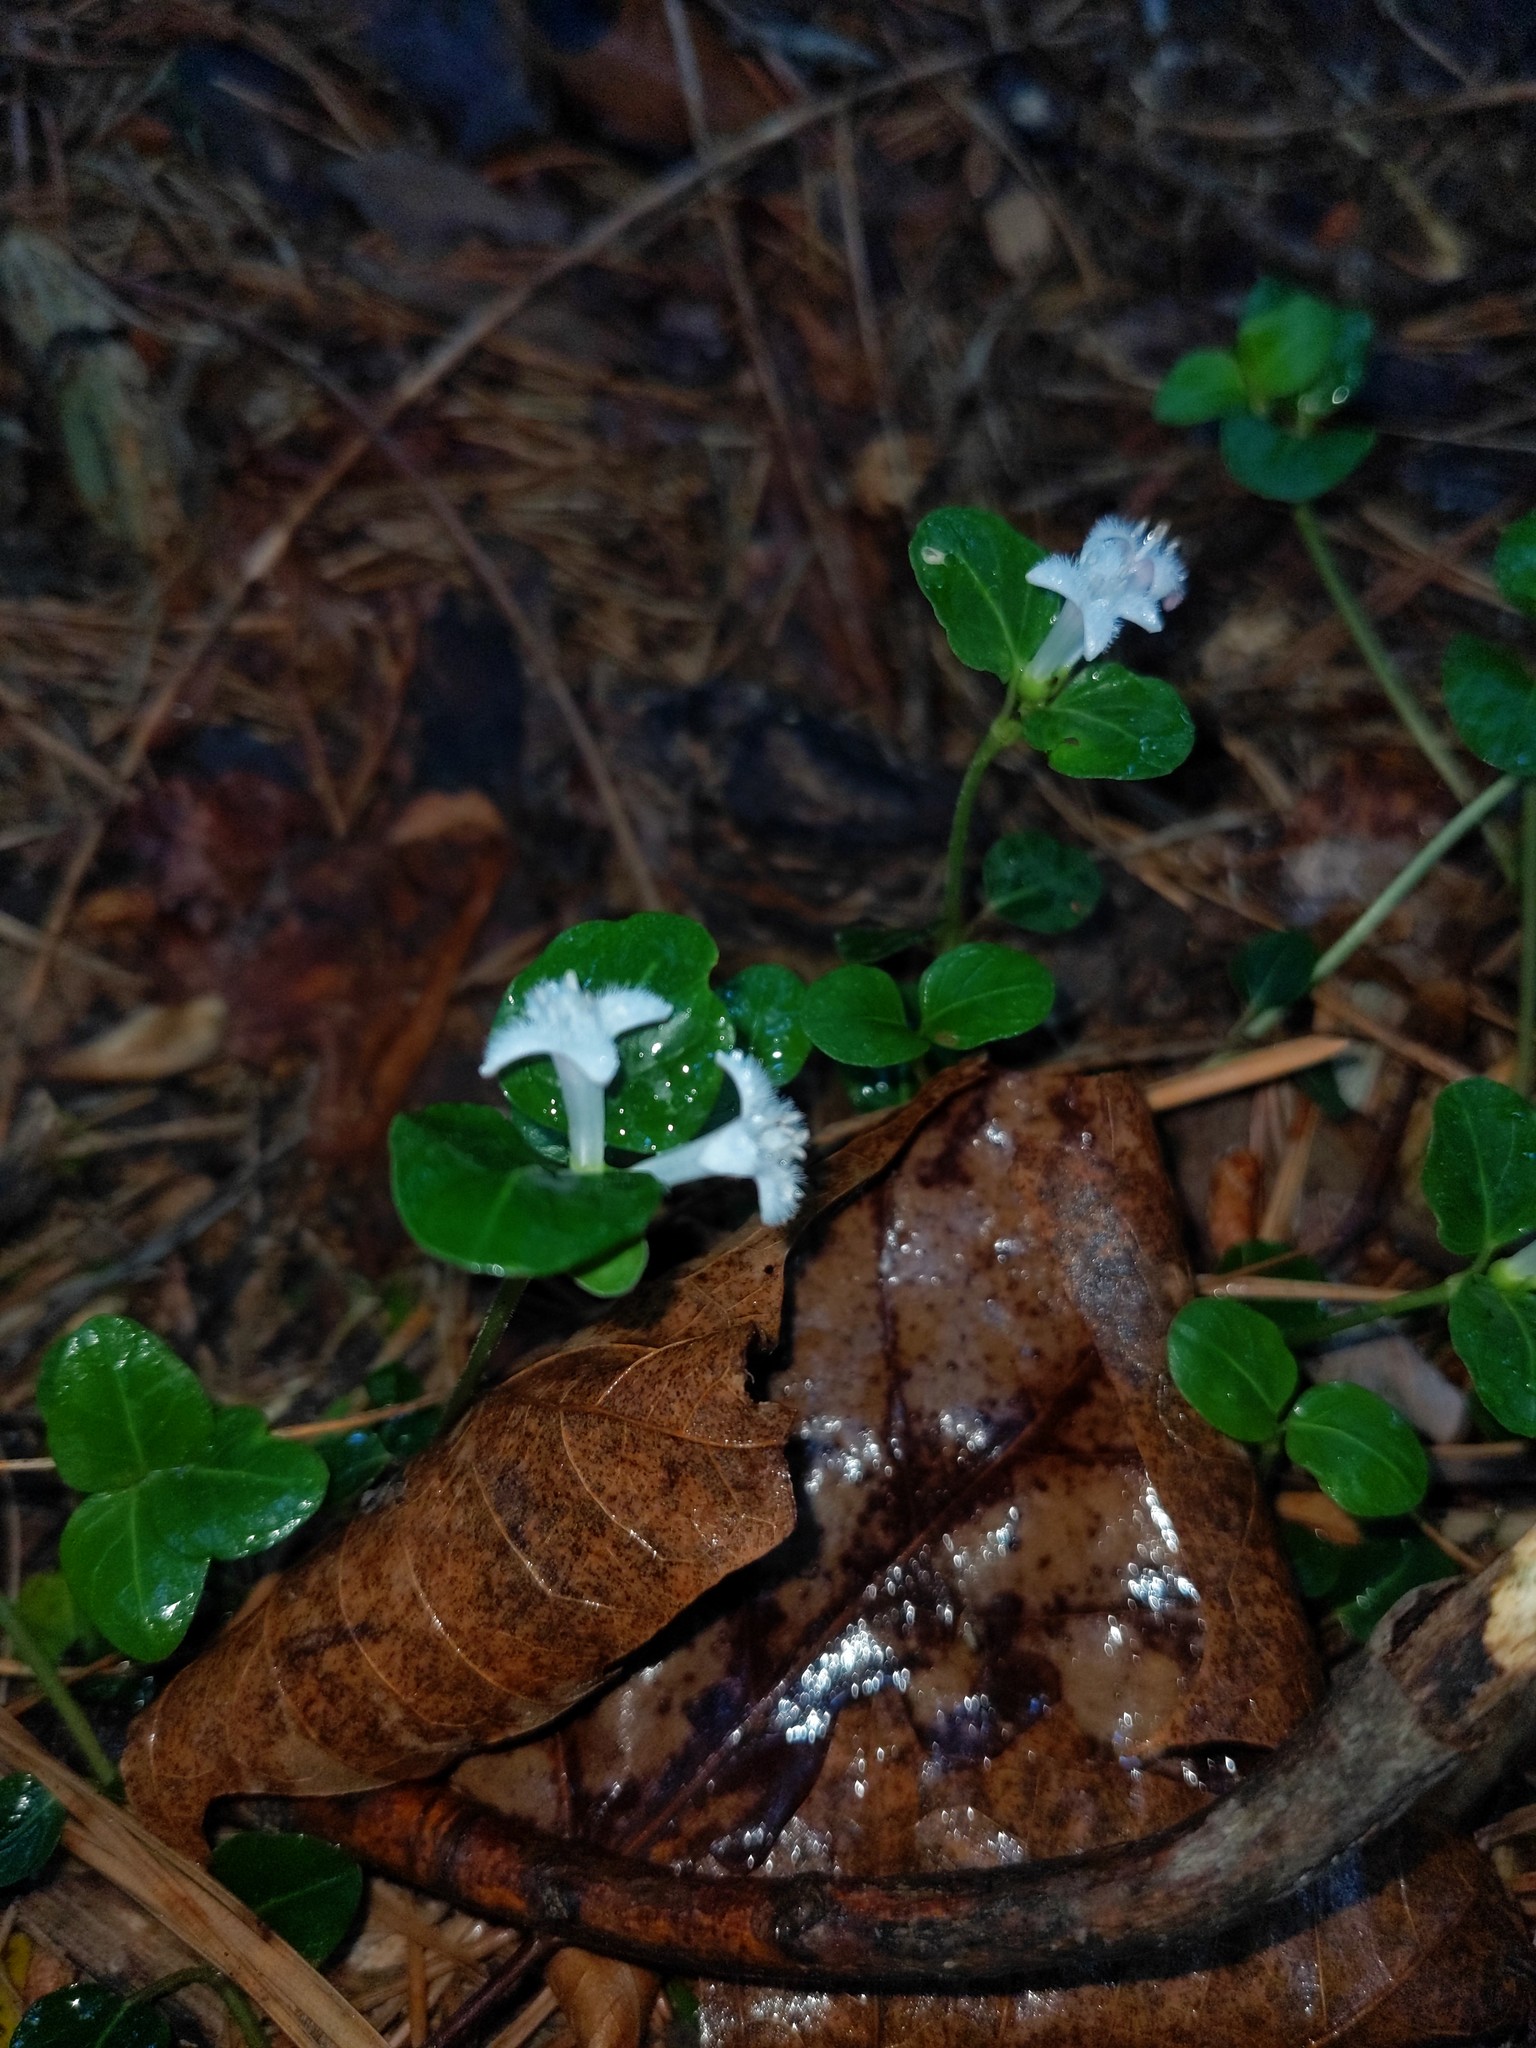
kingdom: Plantae
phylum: Tracheophyta
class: Magnoliopsida
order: Gentianales
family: Rubiaceae
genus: Mitchella
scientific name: Mitchella repens
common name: Partridge-berry
